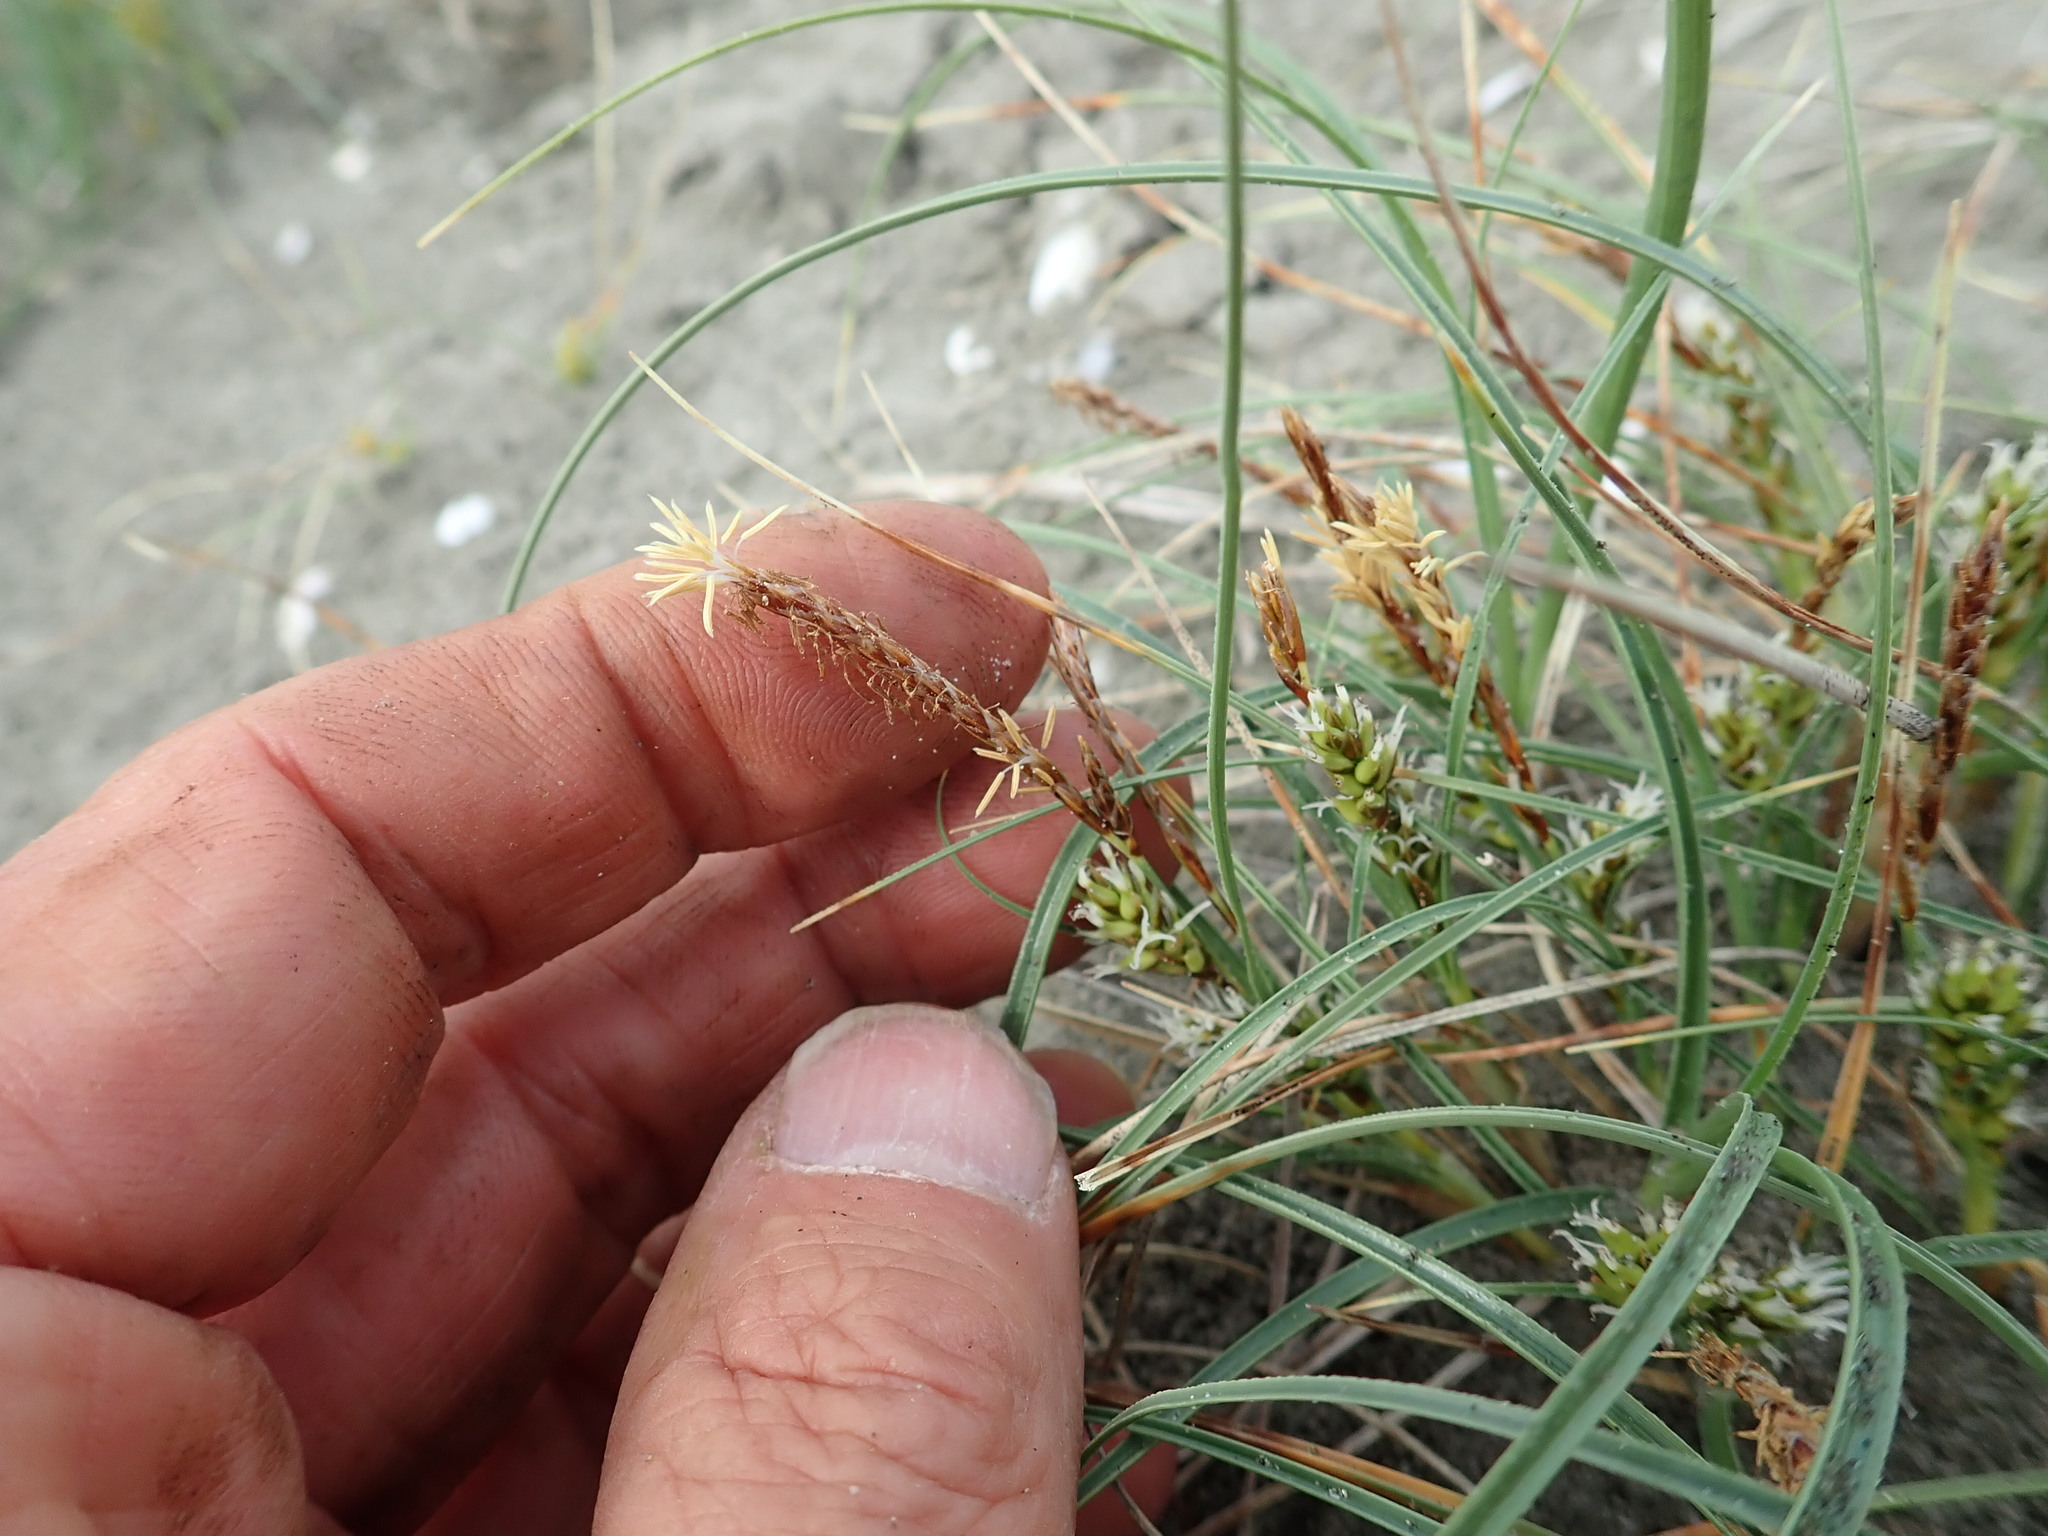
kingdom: Plantae
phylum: Tracheophyta
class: Liliopsida
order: Poales
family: Cyperaceae
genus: Carex
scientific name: Carex pumila
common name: Dwarf sedge
